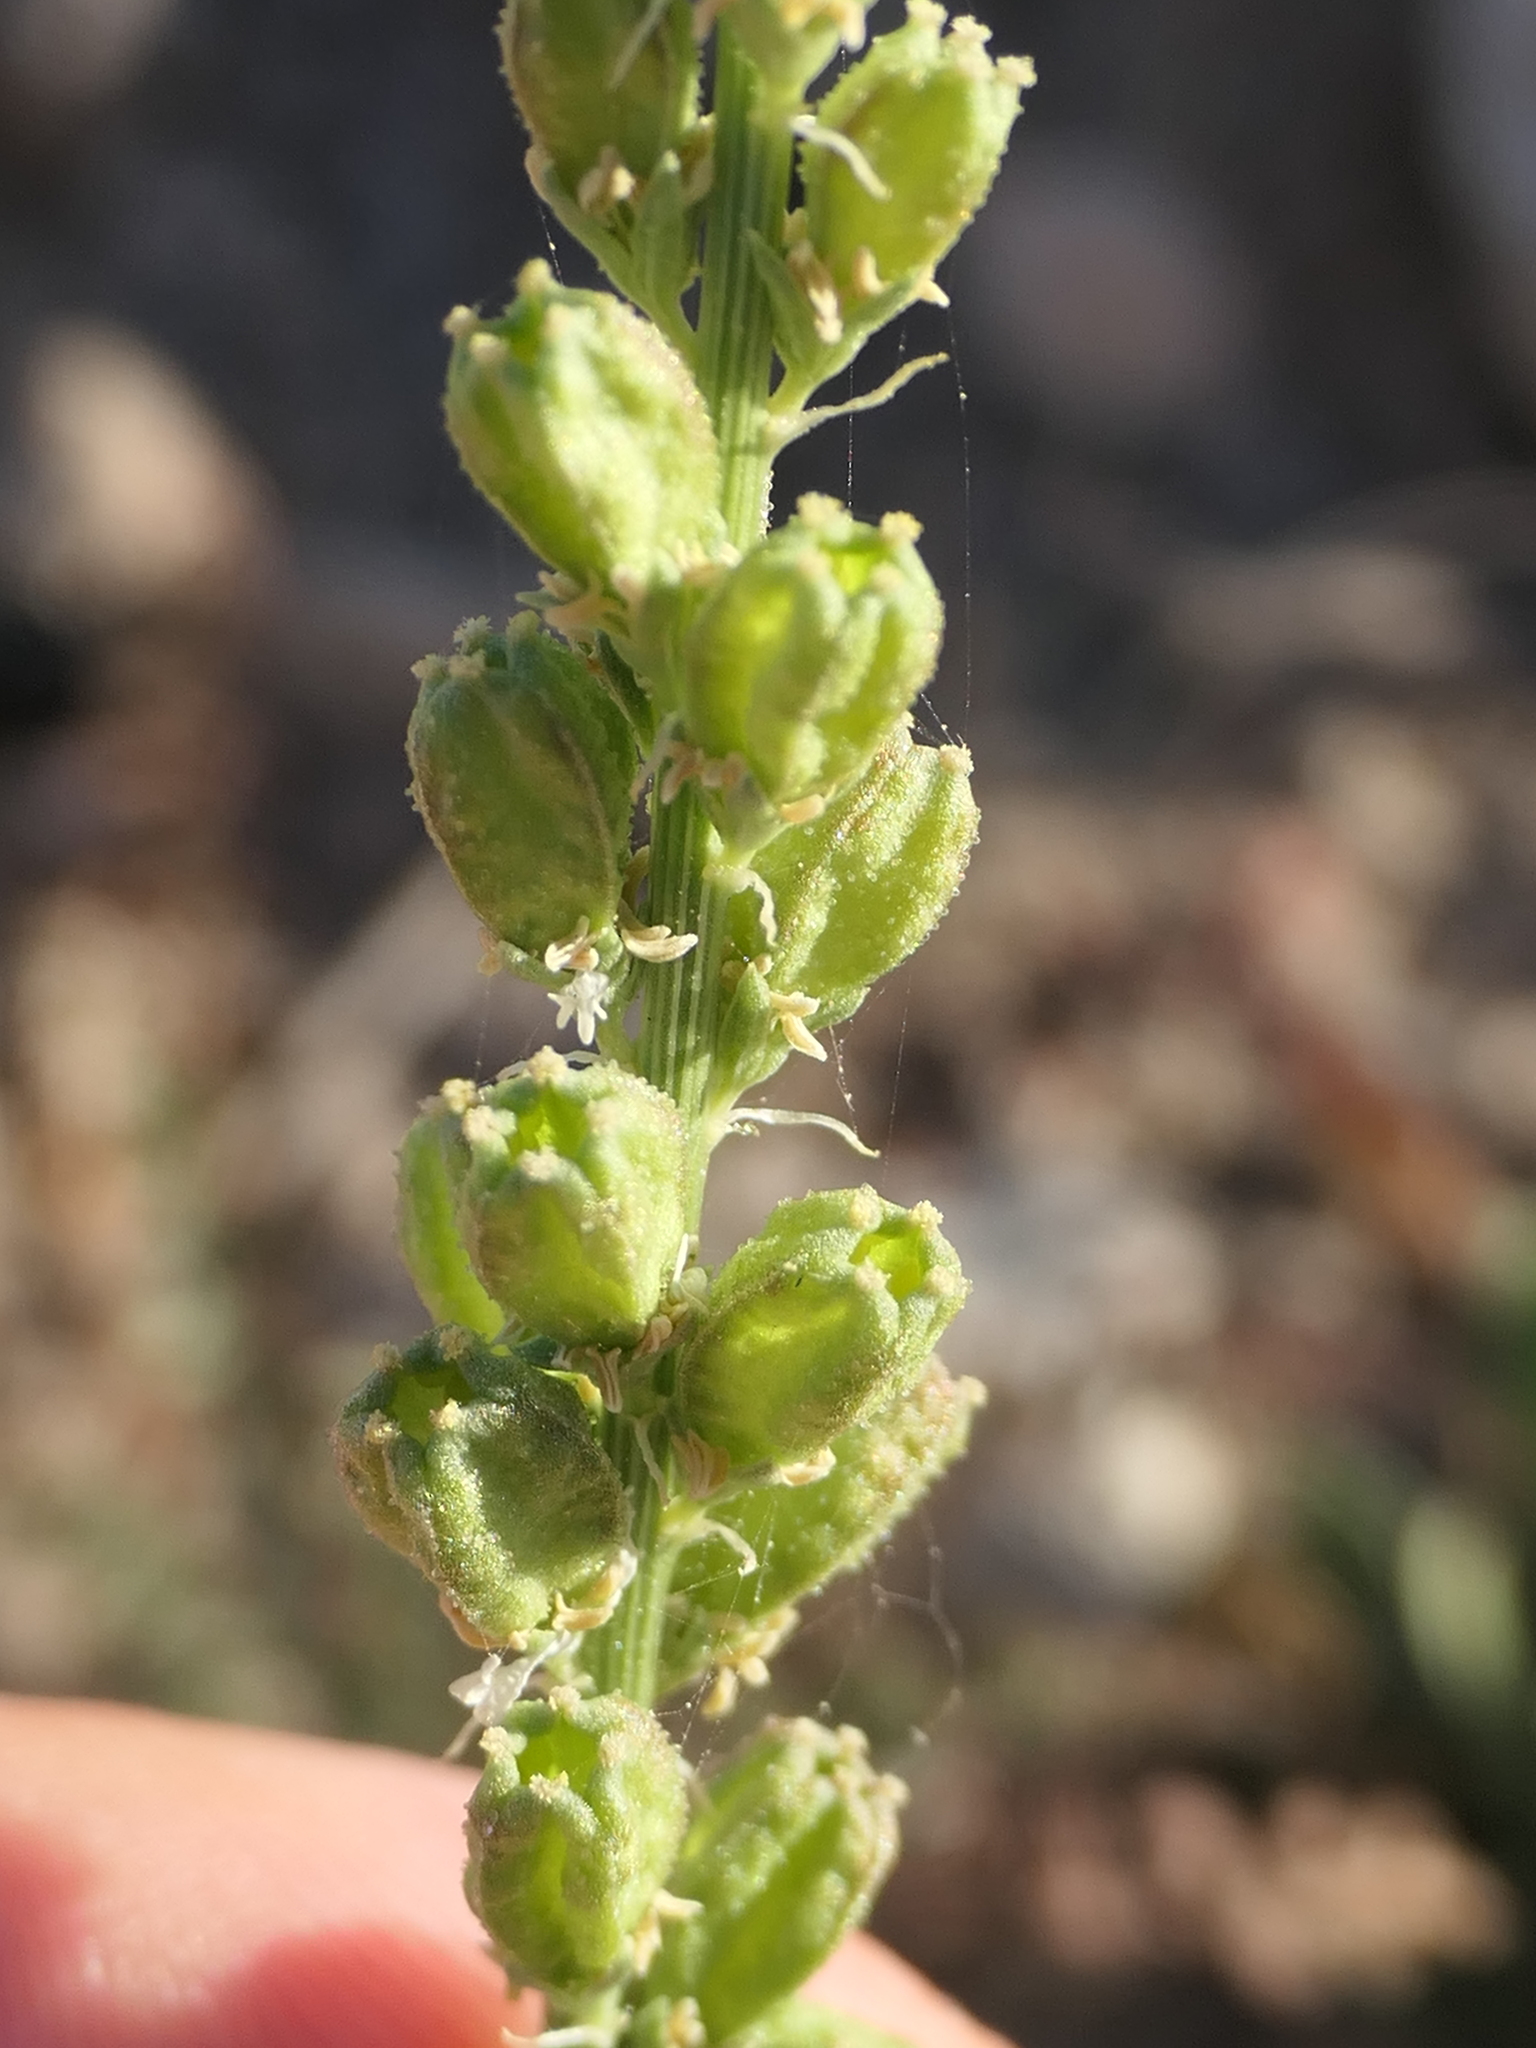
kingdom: Plantae
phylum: Tracheophyta
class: Magnoliopsida
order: Brassicales
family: Resedaceae
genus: Reseda
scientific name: Reseda undata
